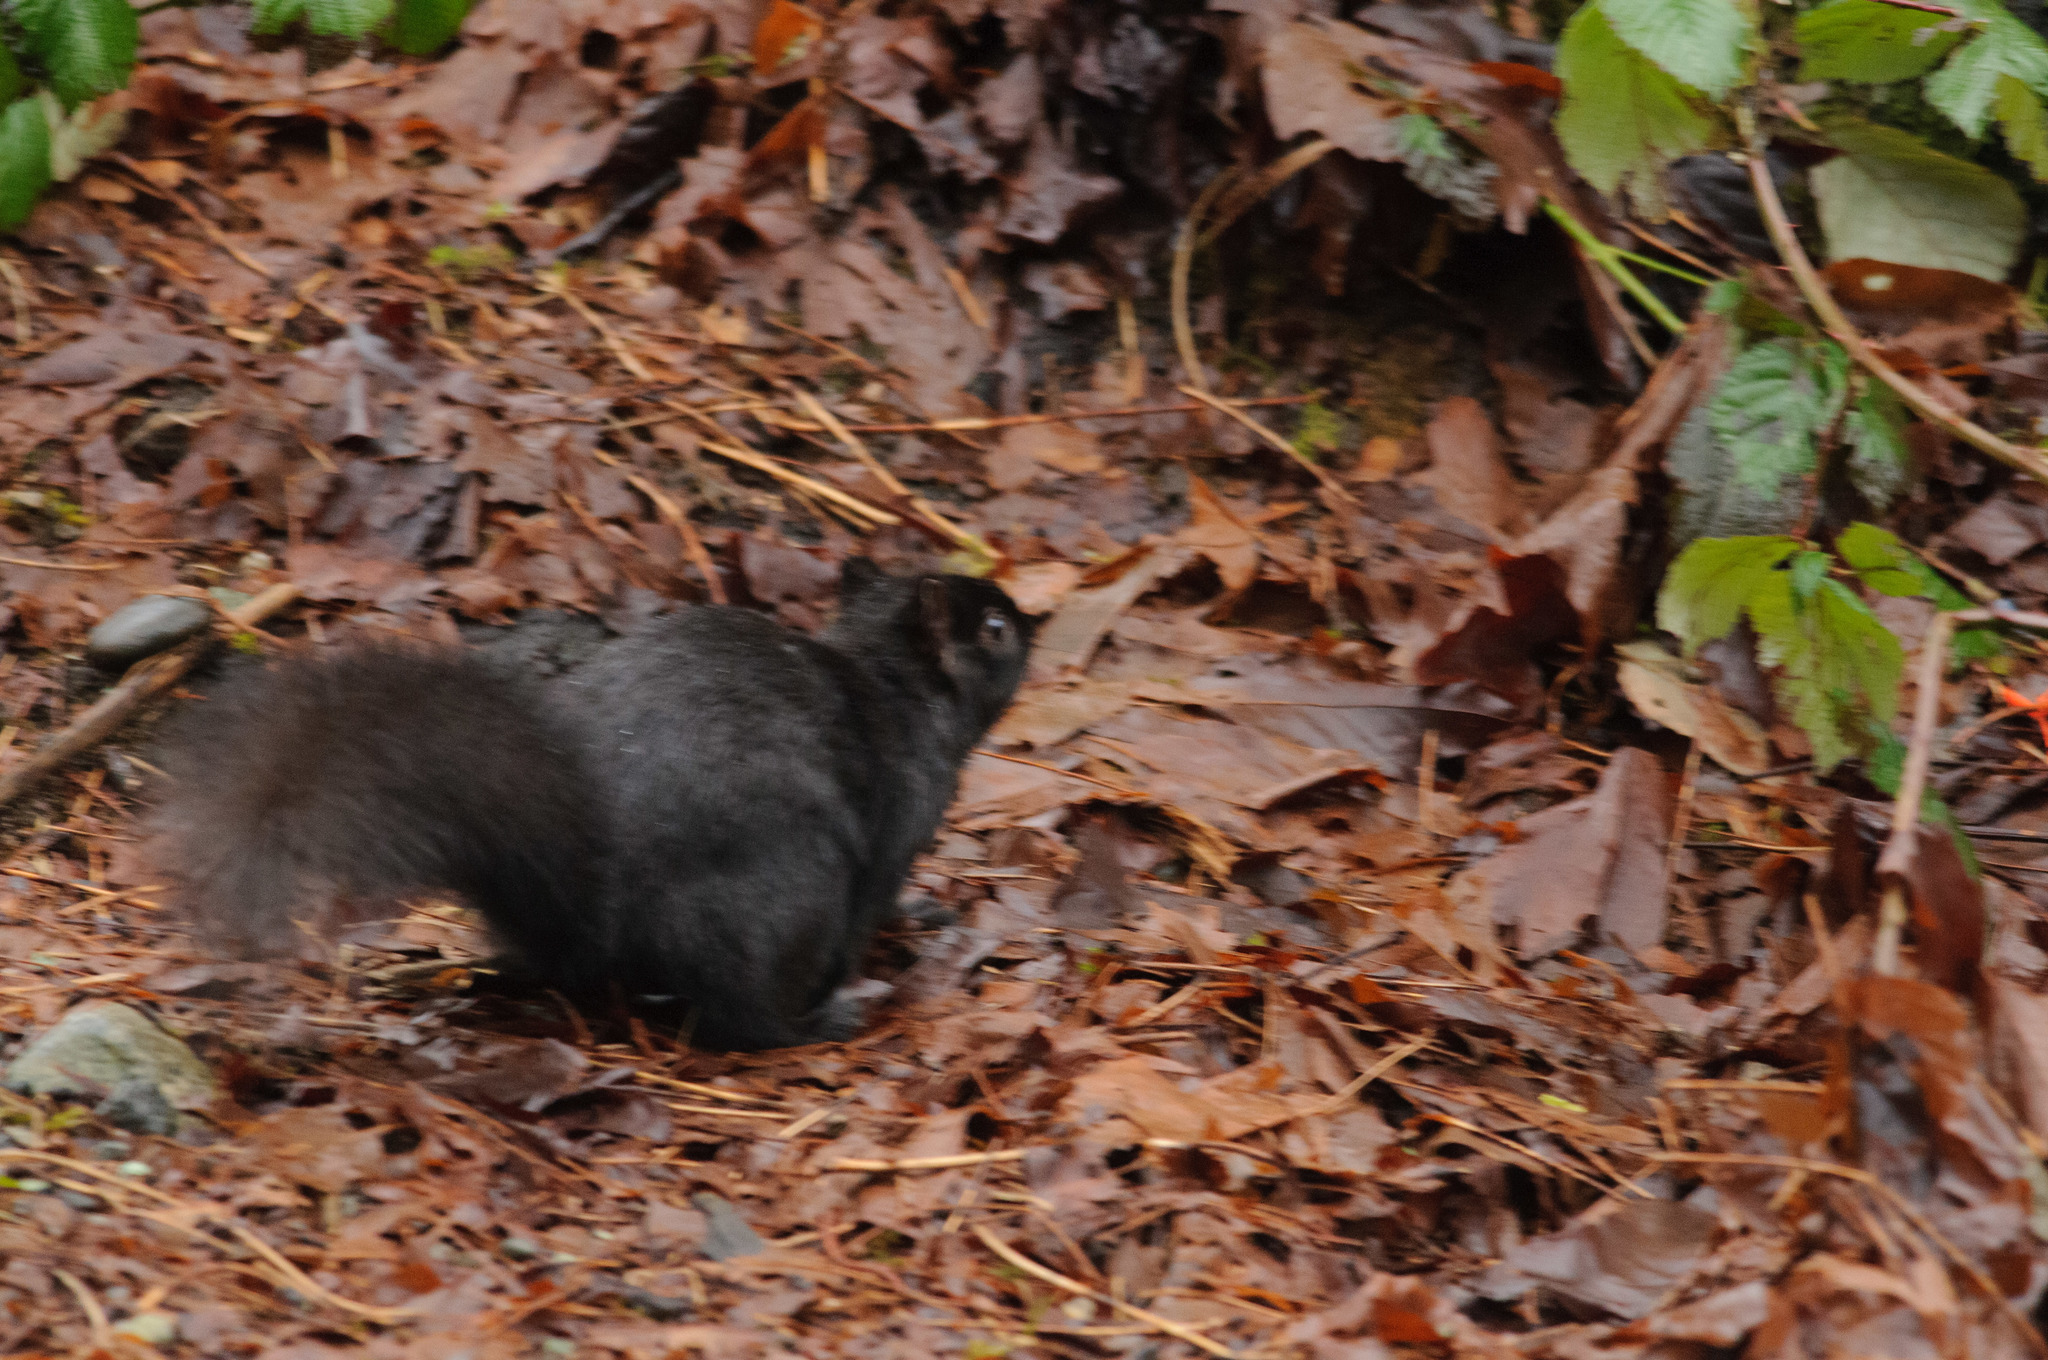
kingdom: Animalia
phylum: Chordata
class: Mammalia
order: Rodentia
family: Sciuridae
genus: Sciurus
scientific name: Sciurus carolinensis
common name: Eastern gray squirrel
